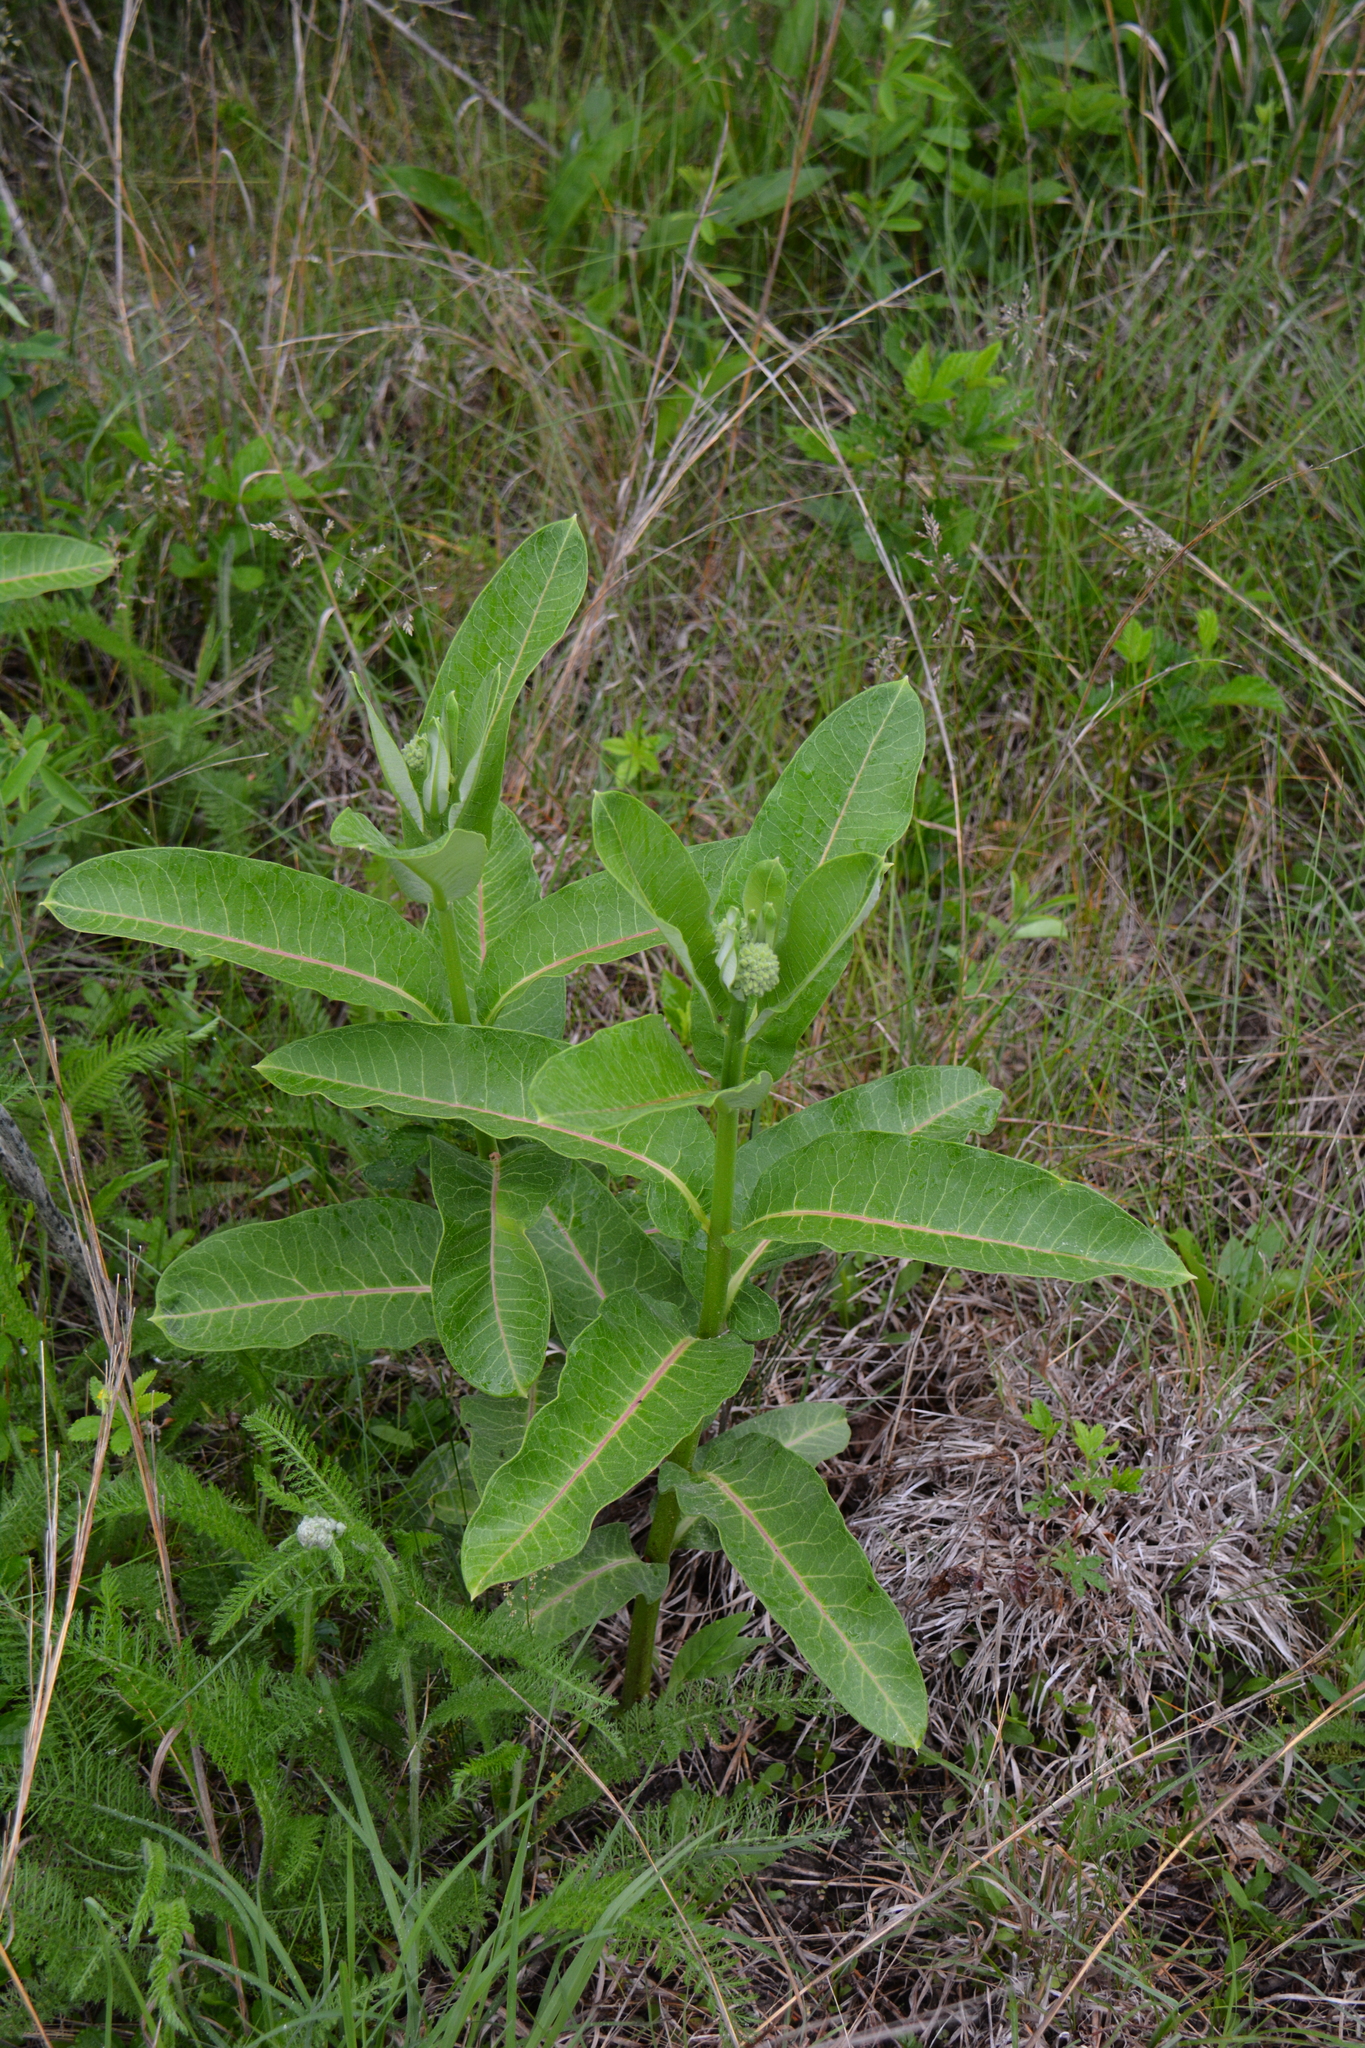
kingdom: Plantae
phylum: Tracheophyta
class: Magnoliopsida
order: Gentianales
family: Apocynaceae
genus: Asclepias
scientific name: Asclepias syriaca
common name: Common milkweed
